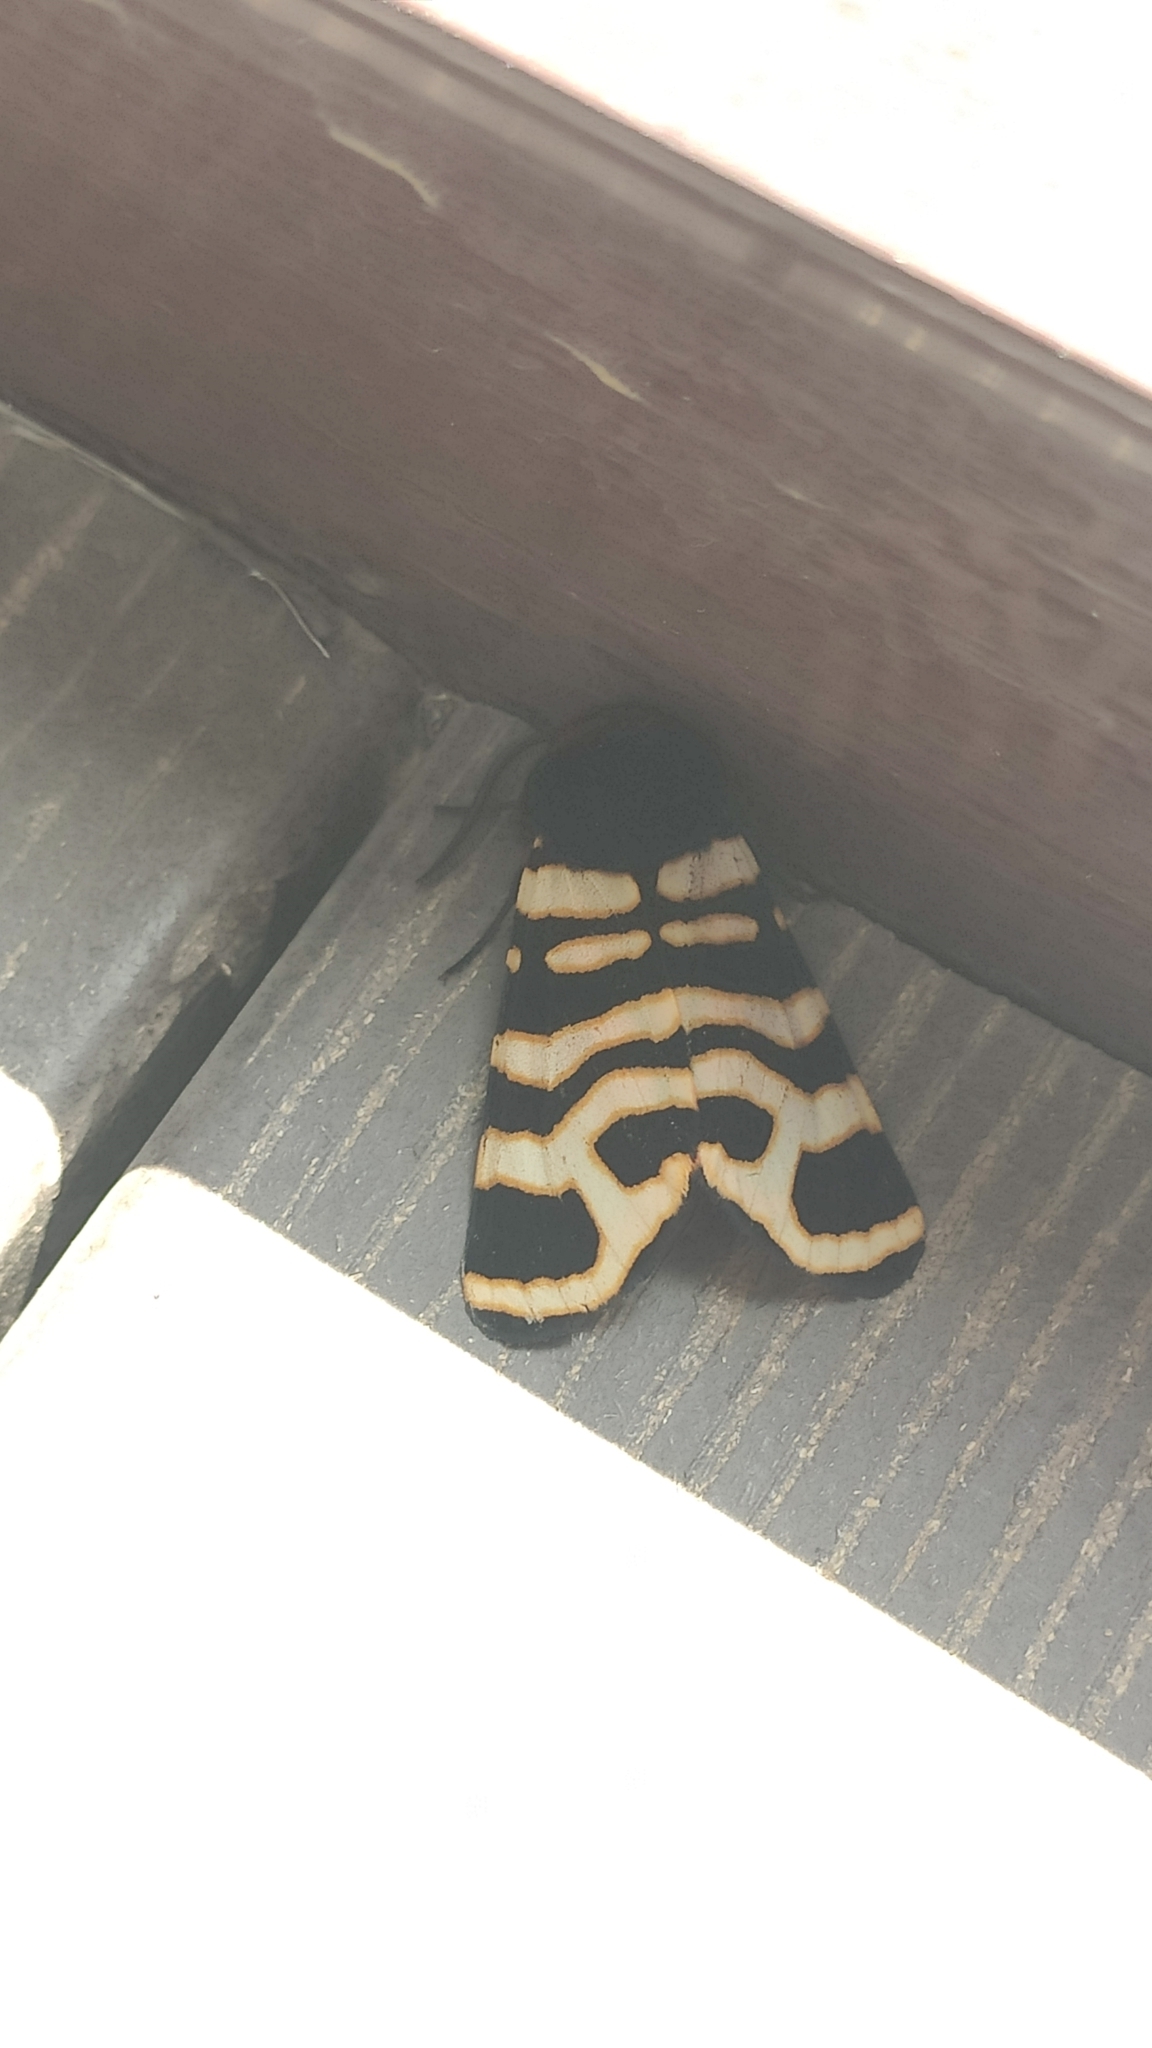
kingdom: Animalia
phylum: Arthropoda
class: Insecta
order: Lepidoptera
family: Erebidae
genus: Eucharia
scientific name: Eucharia festiva
